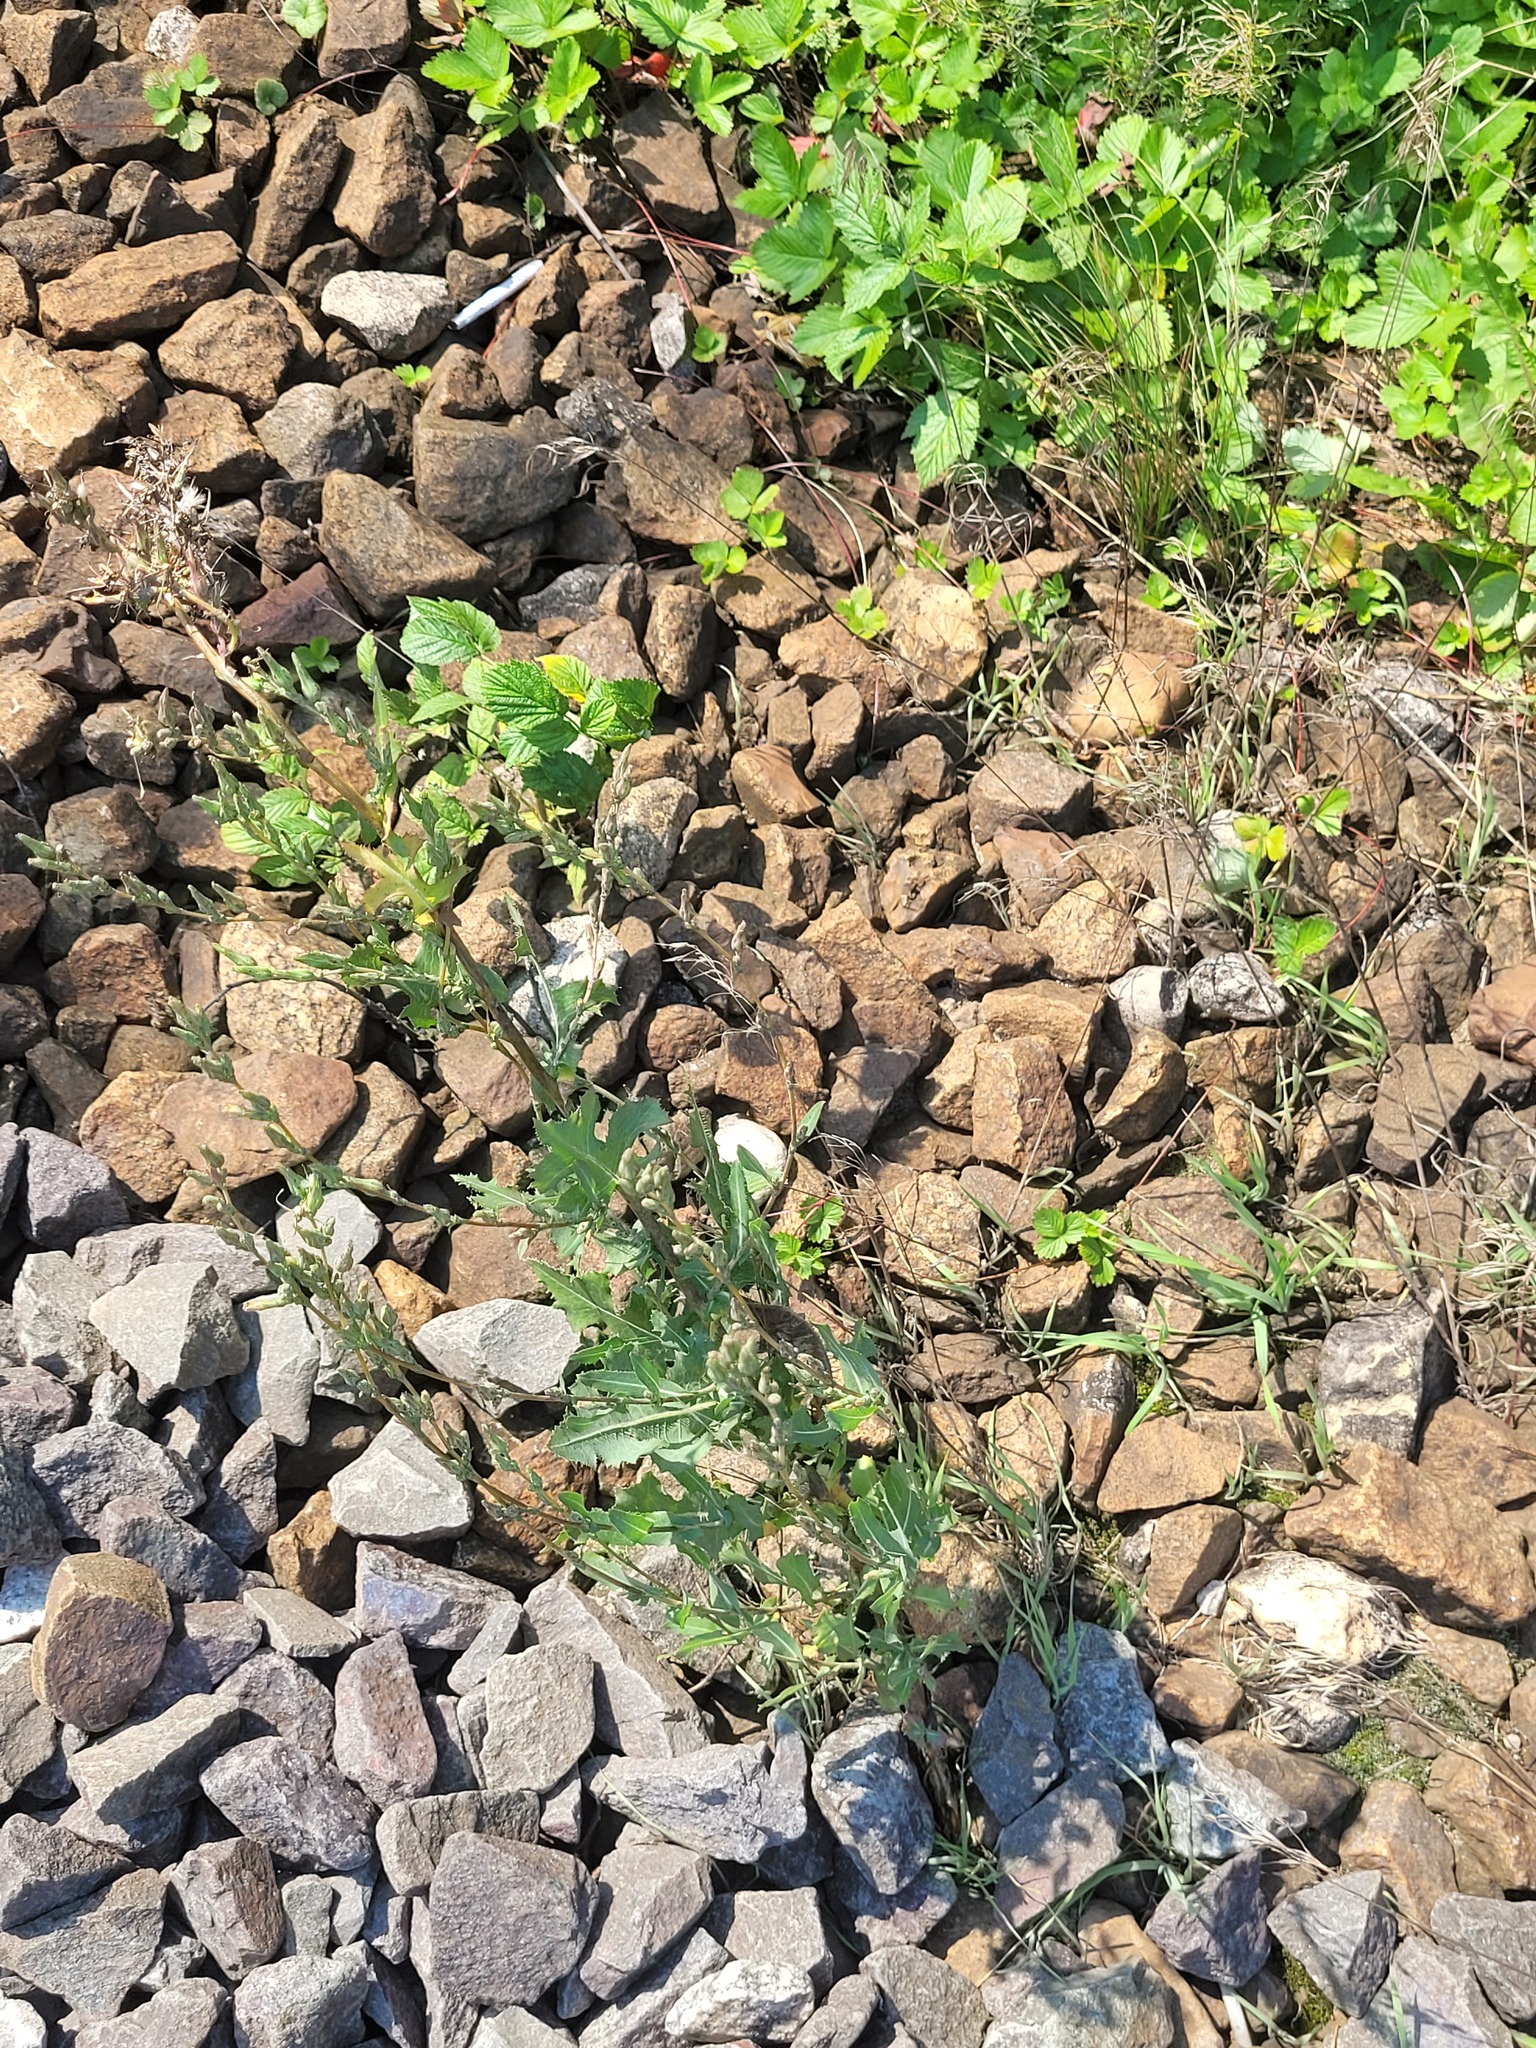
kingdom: Plantae
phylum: Tracheophyta
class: Magnoliopsida
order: Asterales
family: Asteraceae
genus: Lactuca
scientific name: Lactuca serriola
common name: Prickly lettuce
